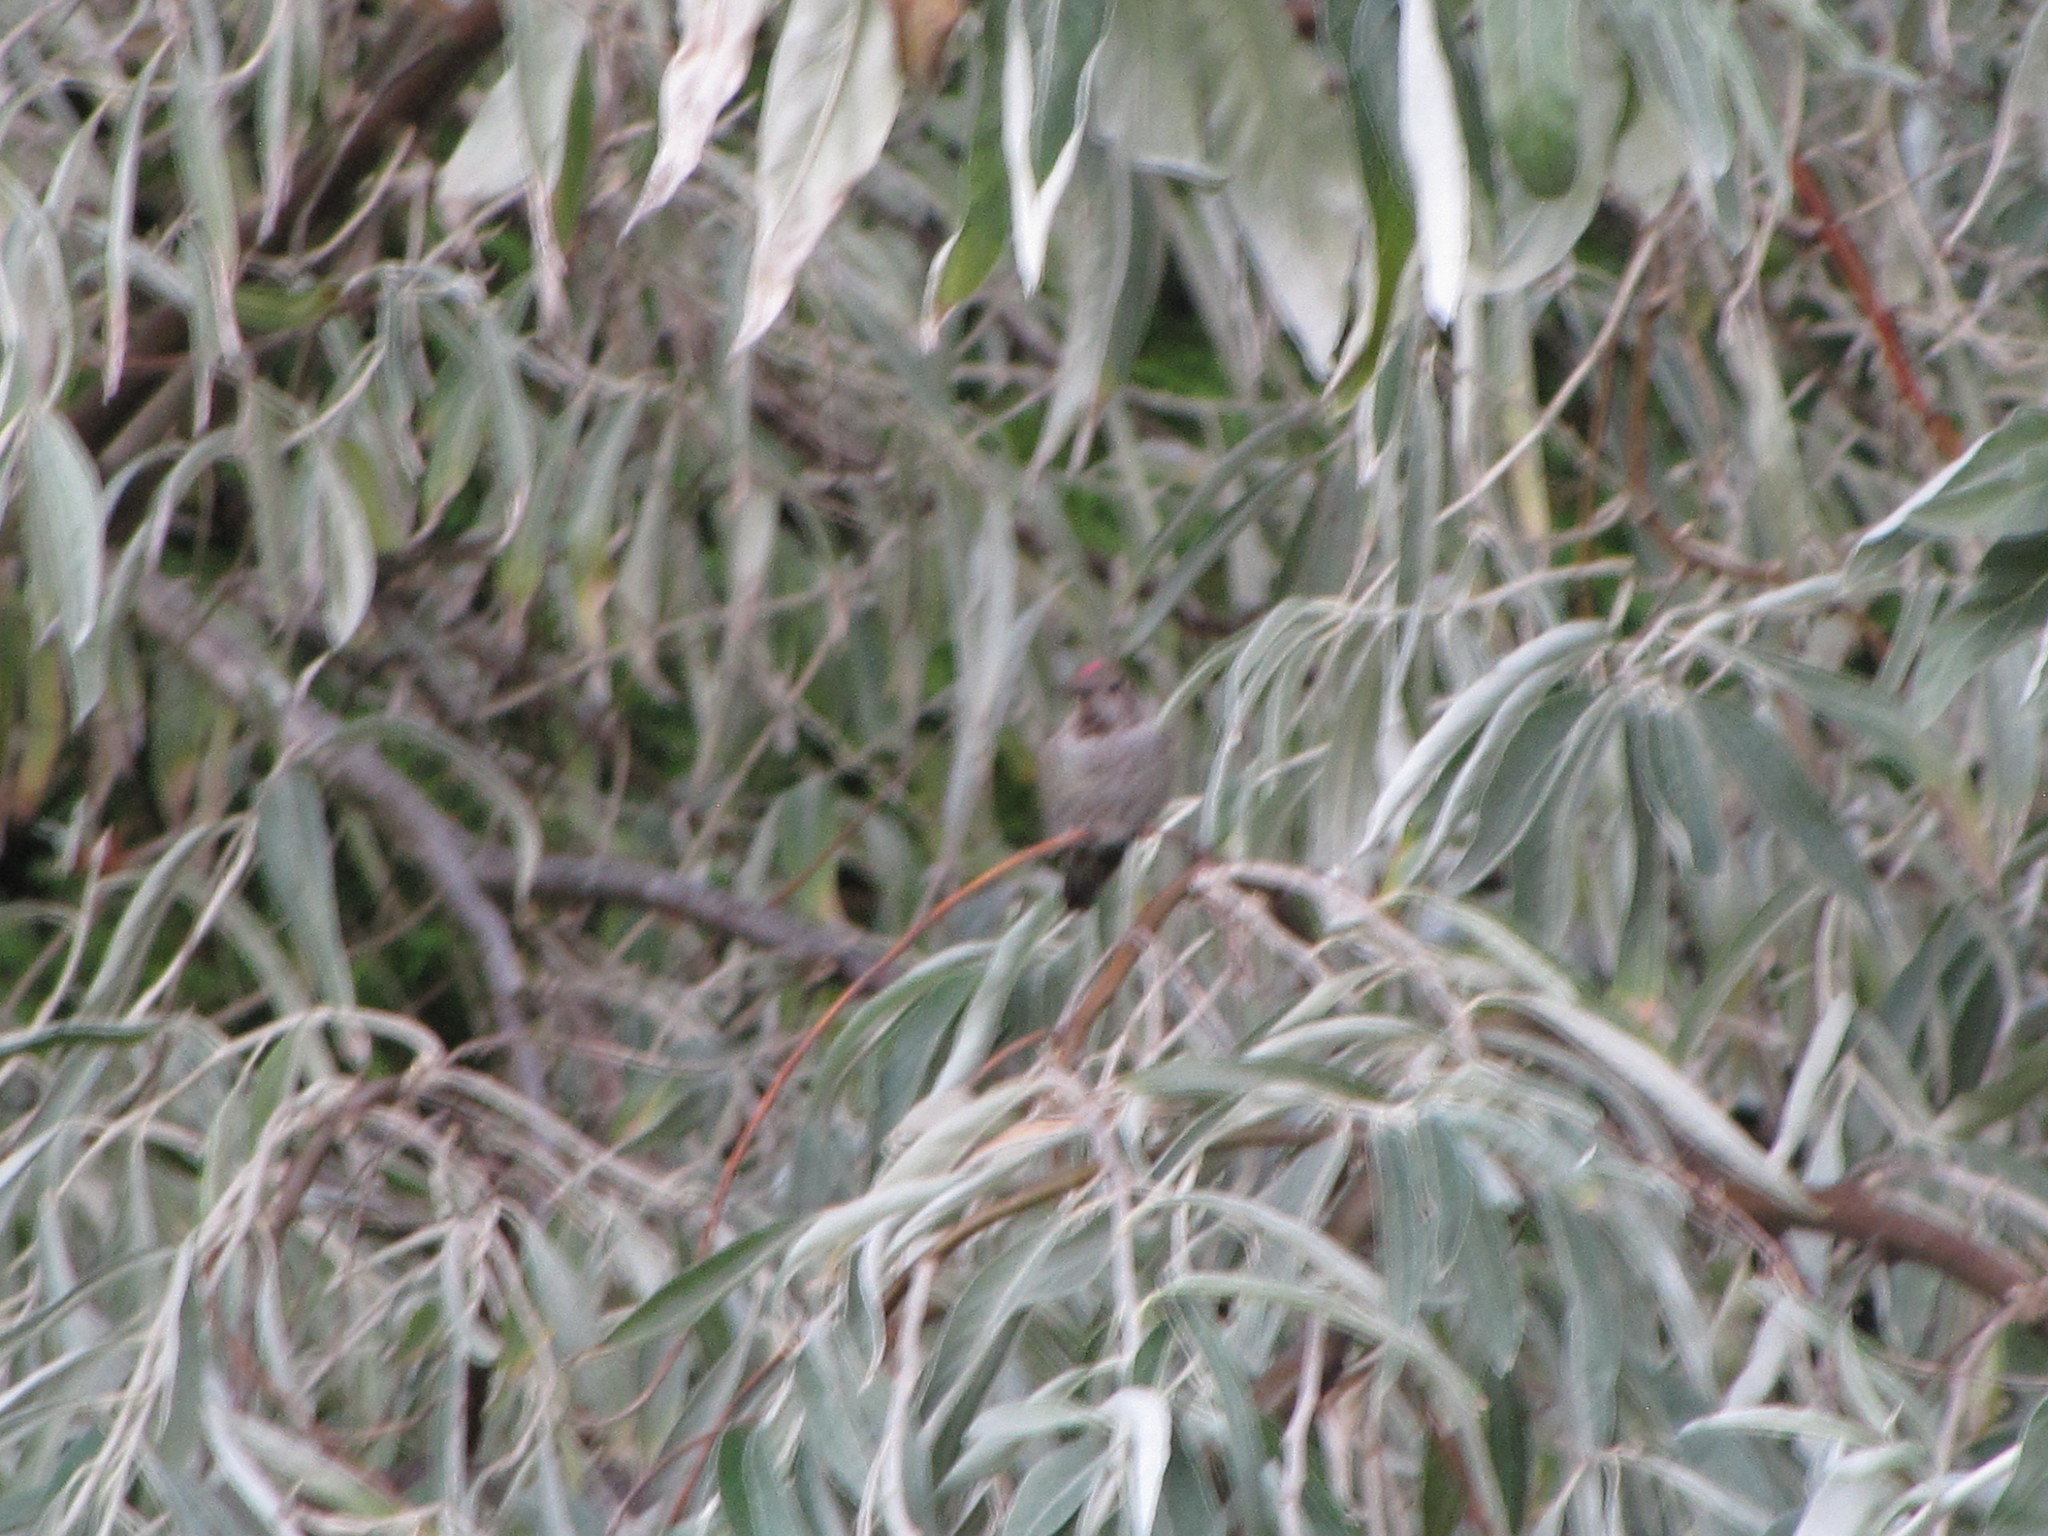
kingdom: Animalia
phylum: Chordata
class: Aves
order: Apodiformes
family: Trochilidae
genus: Calypte
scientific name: Calypte anna
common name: Anna's hummingbird
